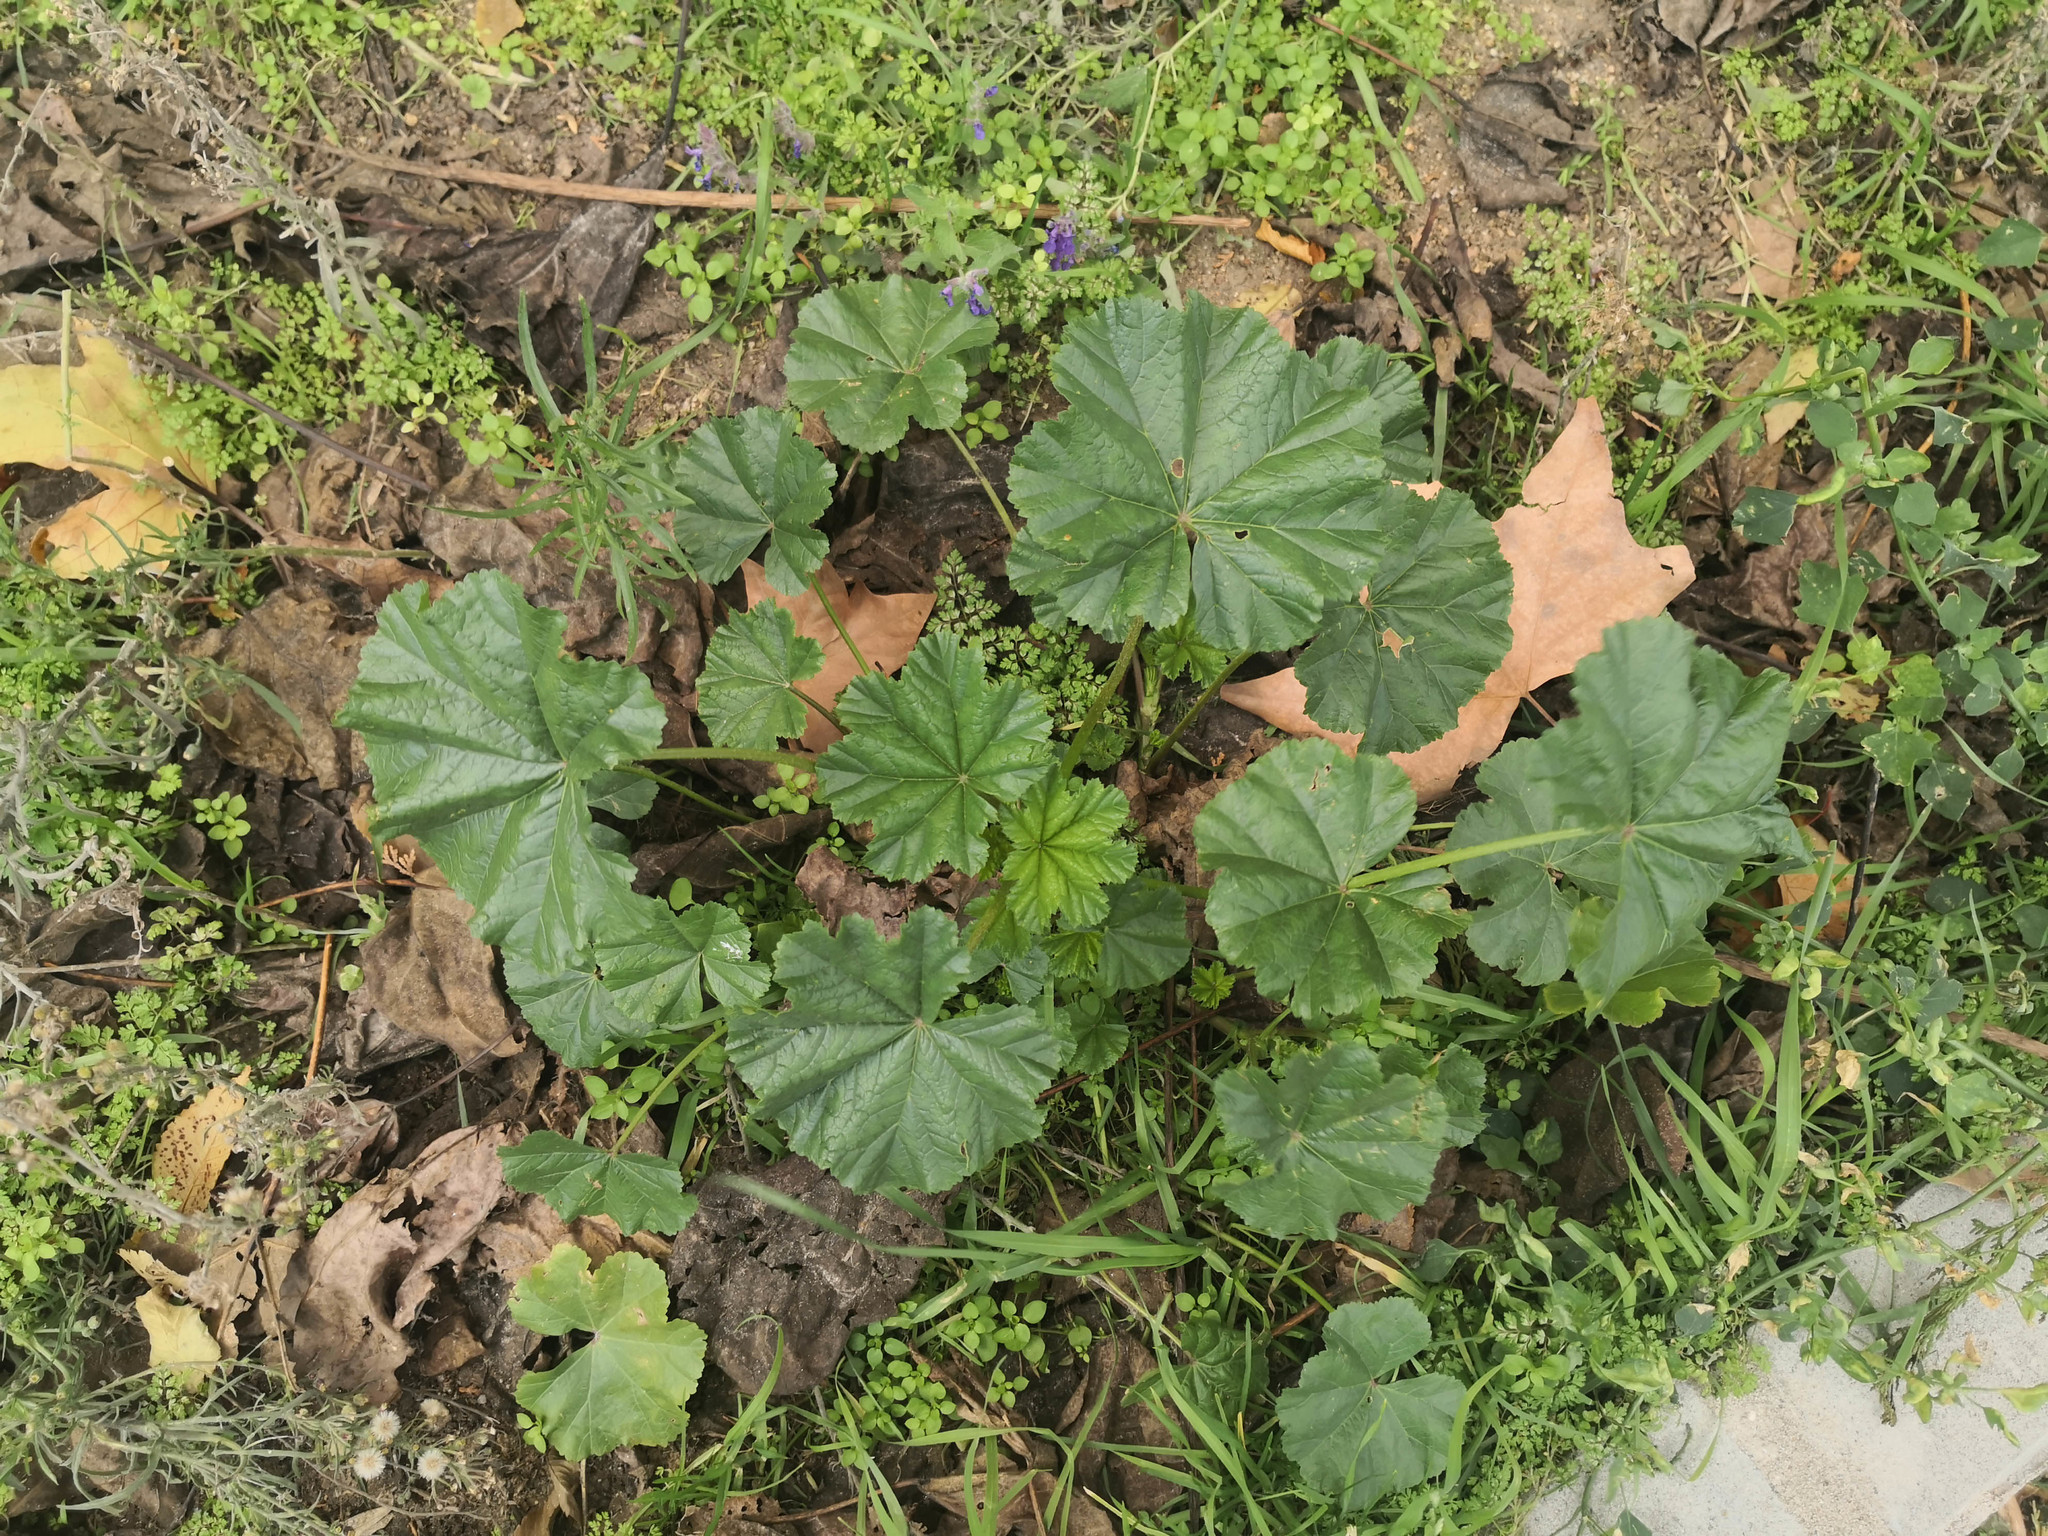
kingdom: Plantae
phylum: Tracheophyta
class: Magnoliopsida
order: Malvales
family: Malvaceae
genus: Malva
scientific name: Malva sylvestris
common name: Common mallow
